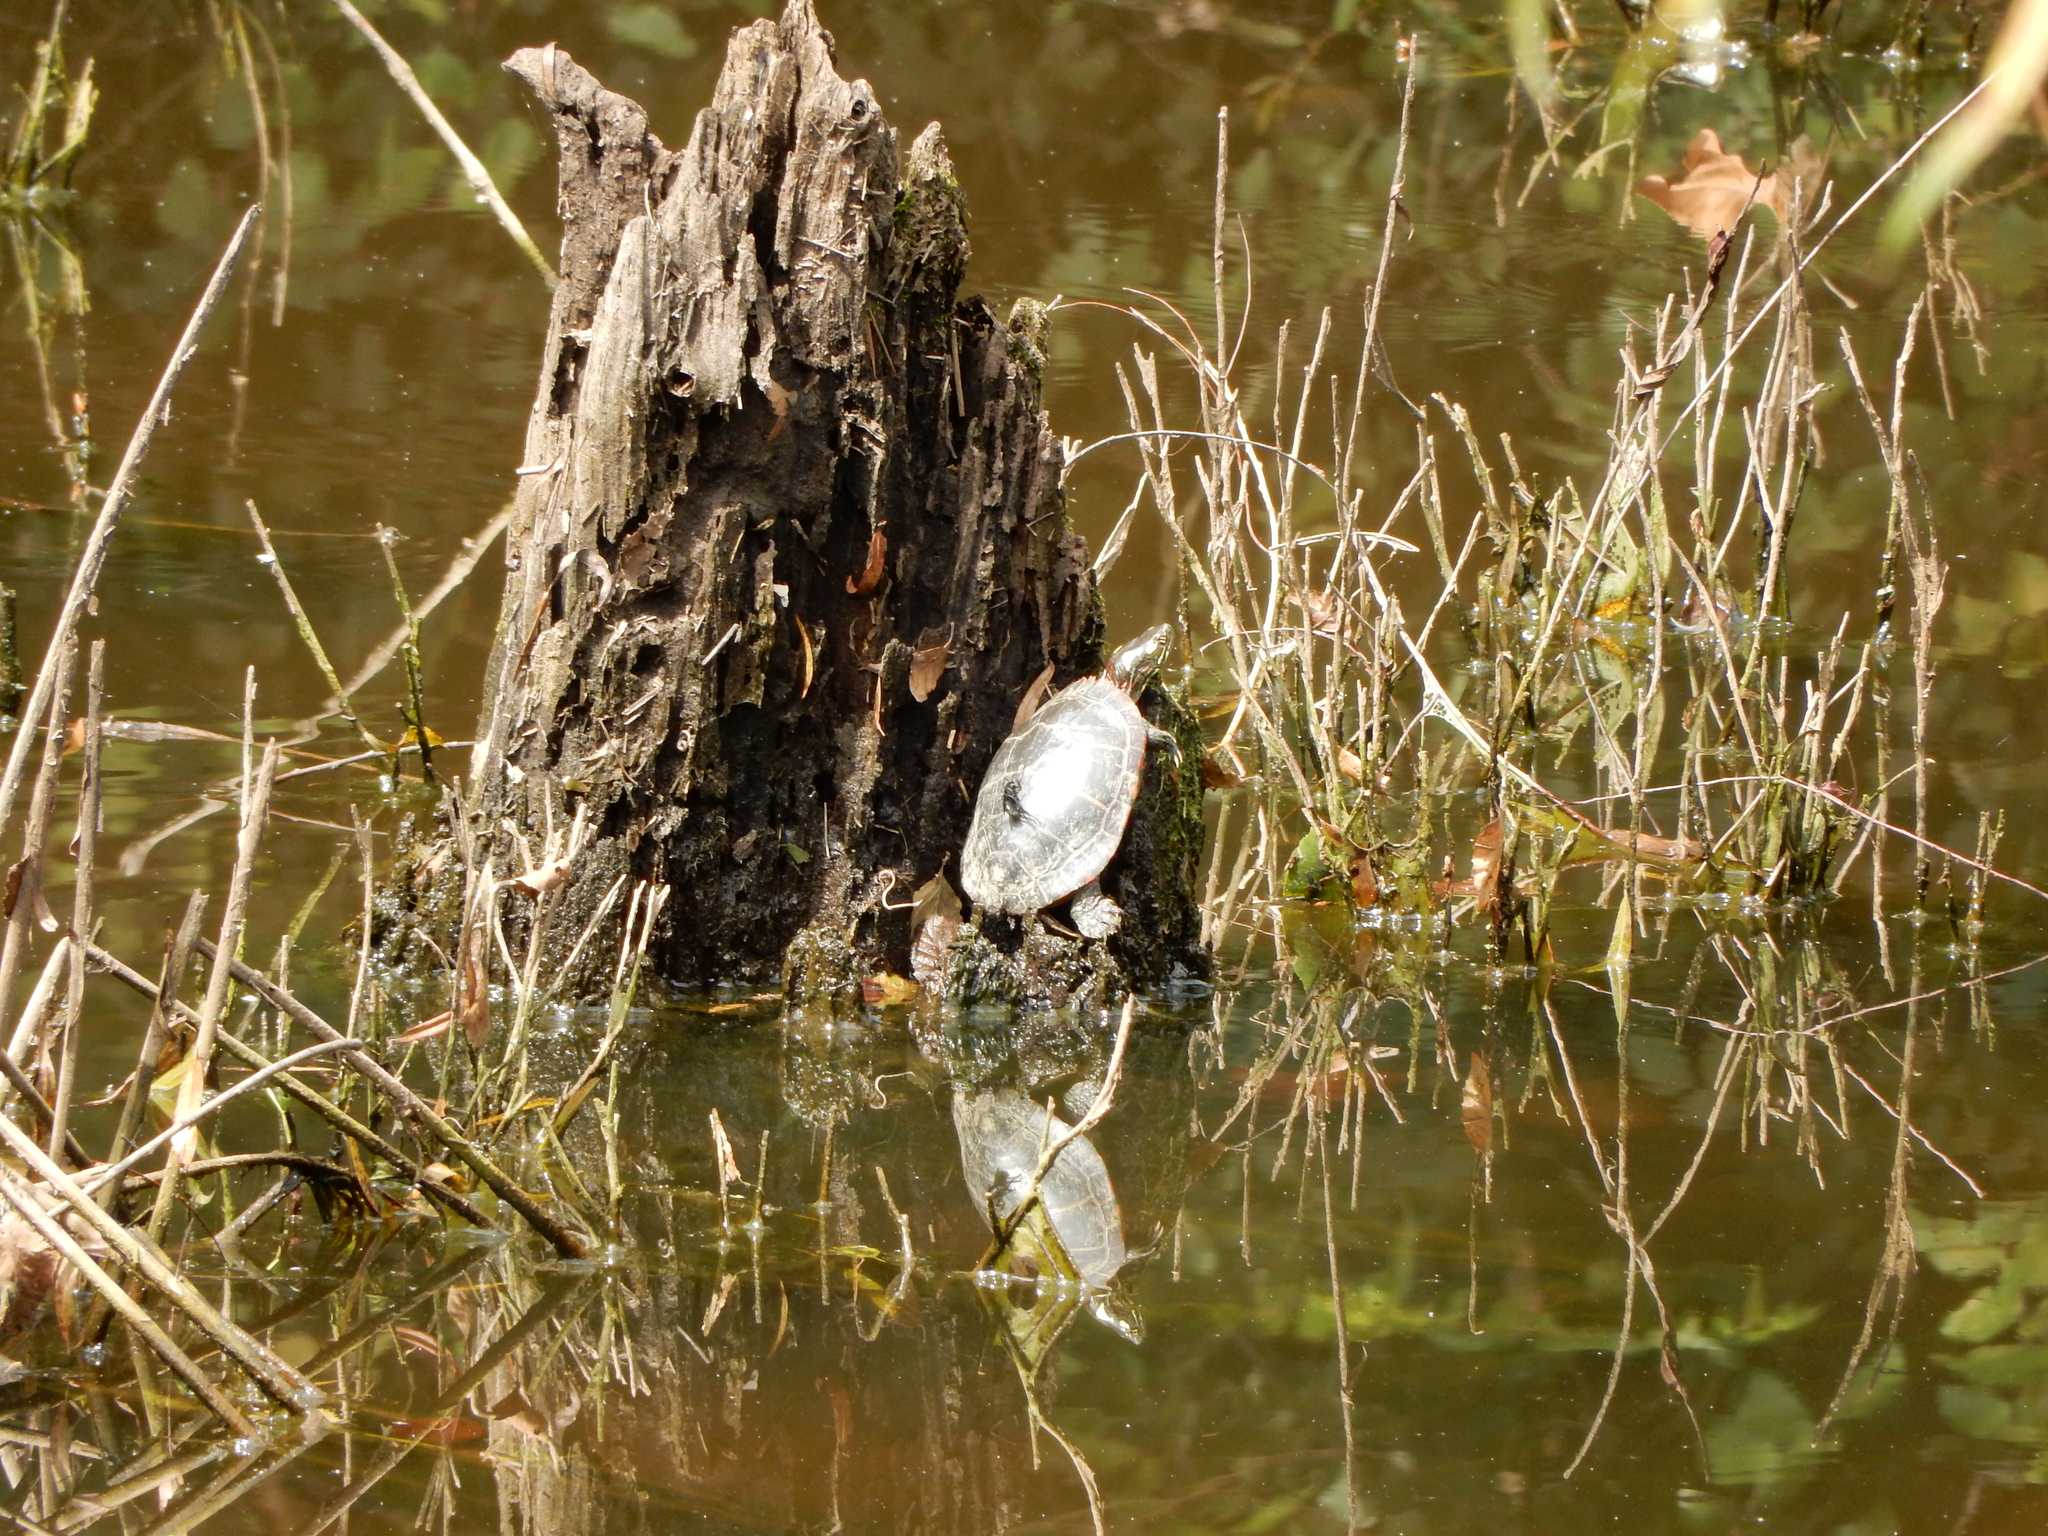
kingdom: Animalia
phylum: Chordata
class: Testudines
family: Emydidae
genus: Chrysemys
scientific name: Chrysemys picta
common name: Painted turtle
